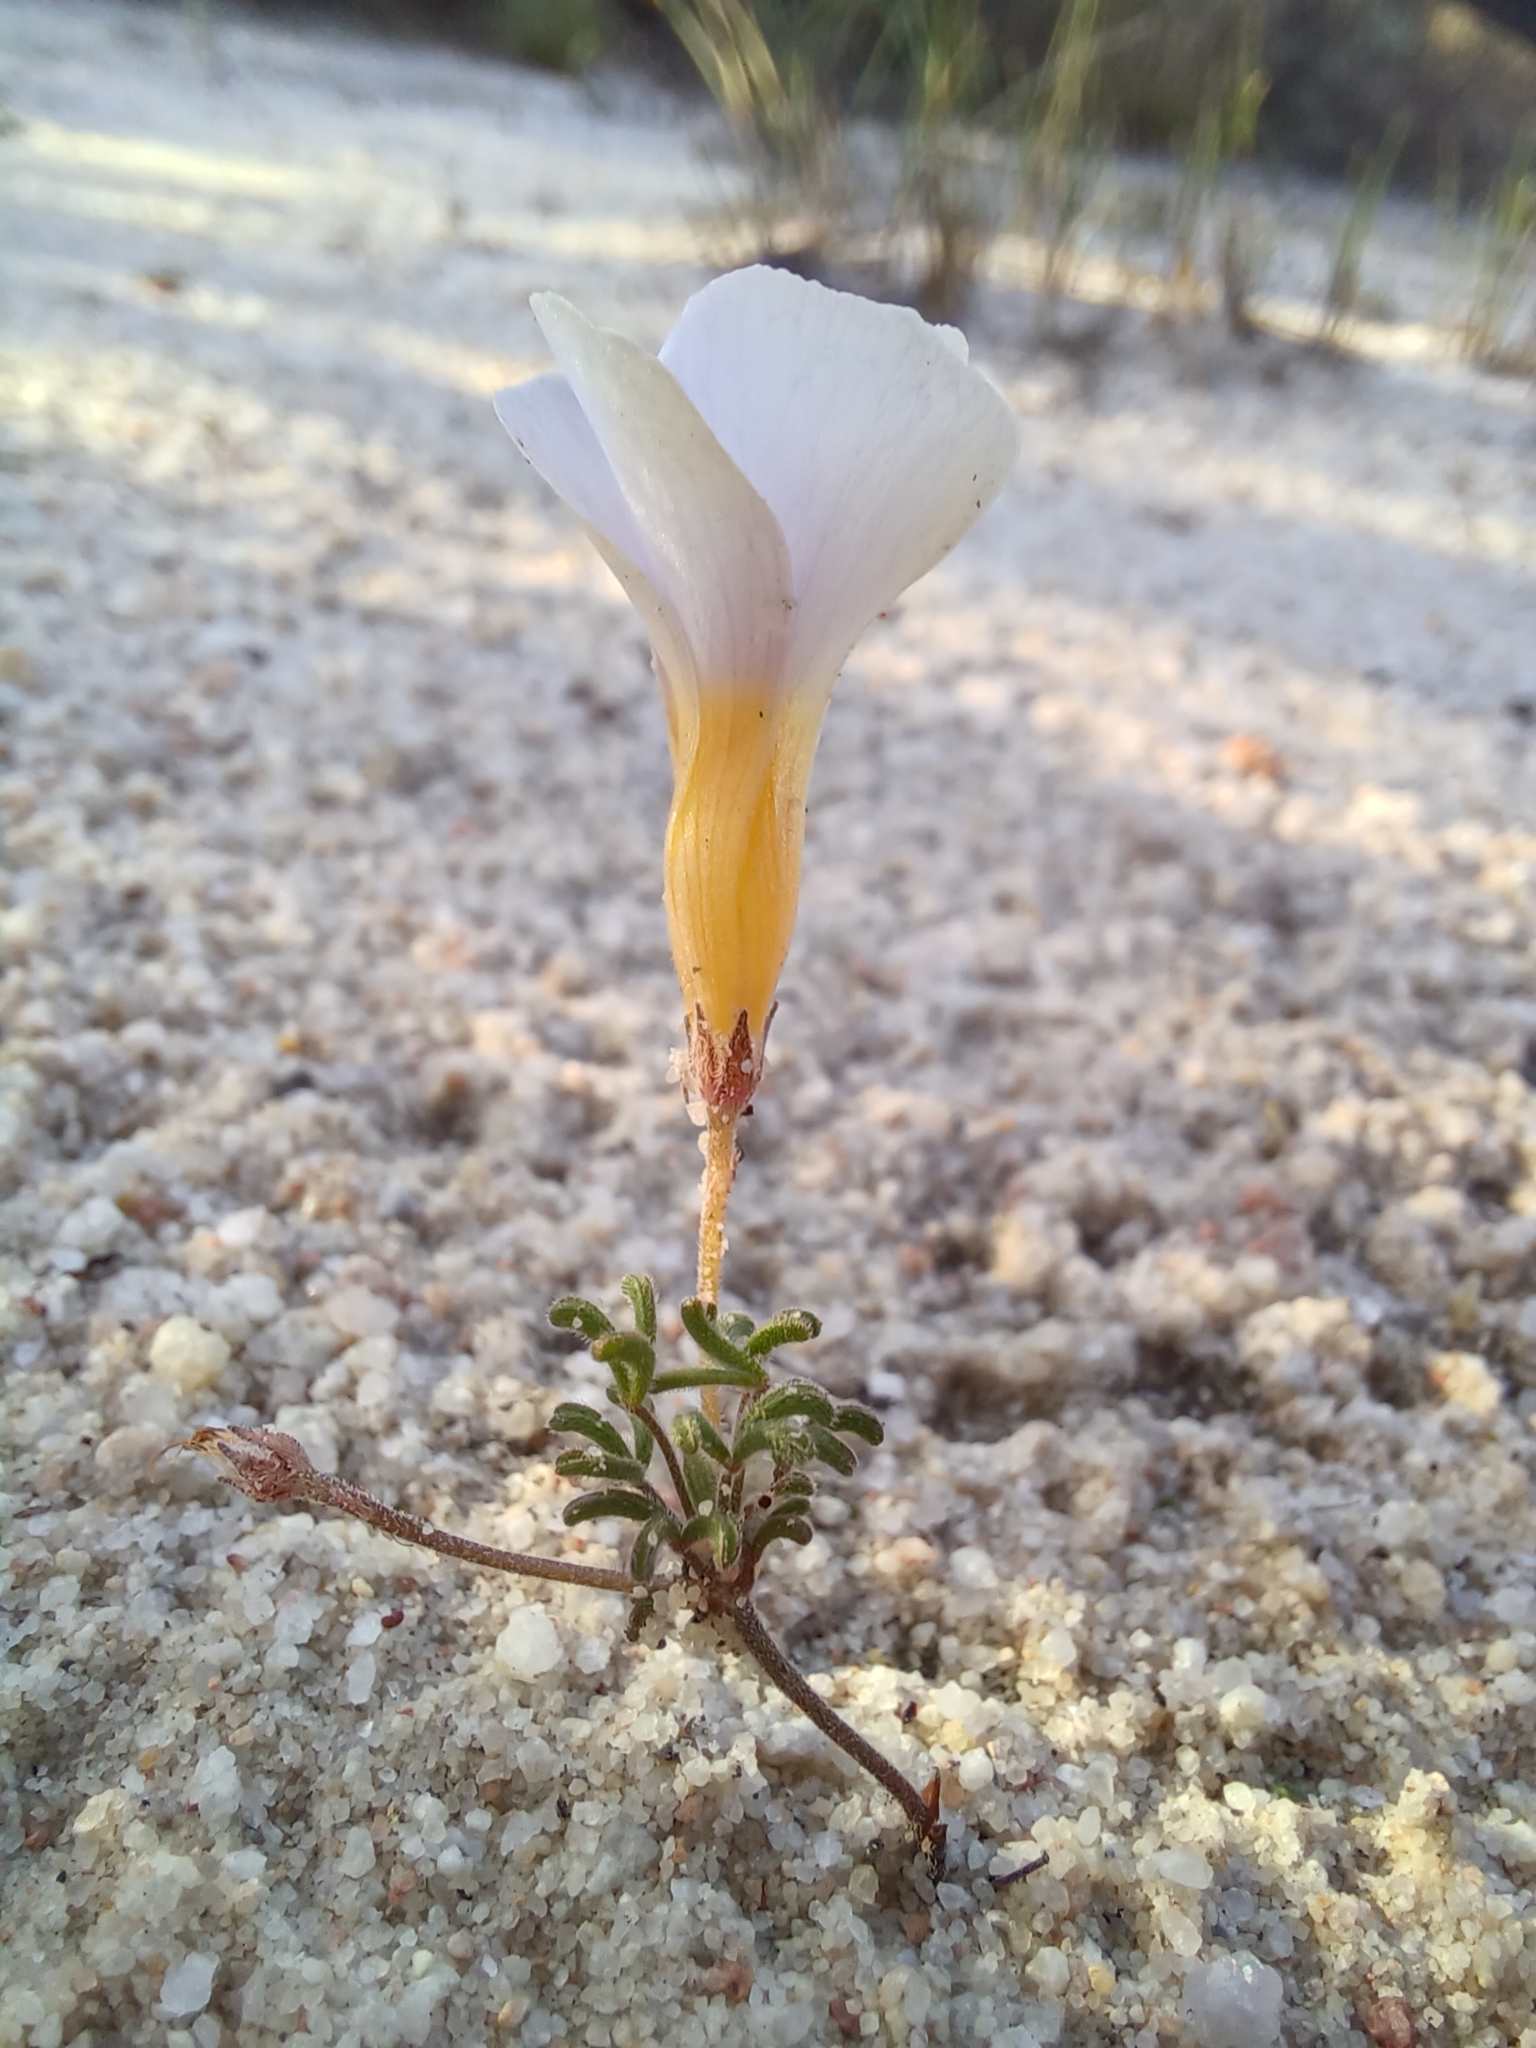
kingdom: Plantae
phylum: Tracheophyta
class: Magnoliopsida
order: Oxalidales
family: Oxalidaceae
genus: Oxalis
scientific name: Oxalis ciliaris
